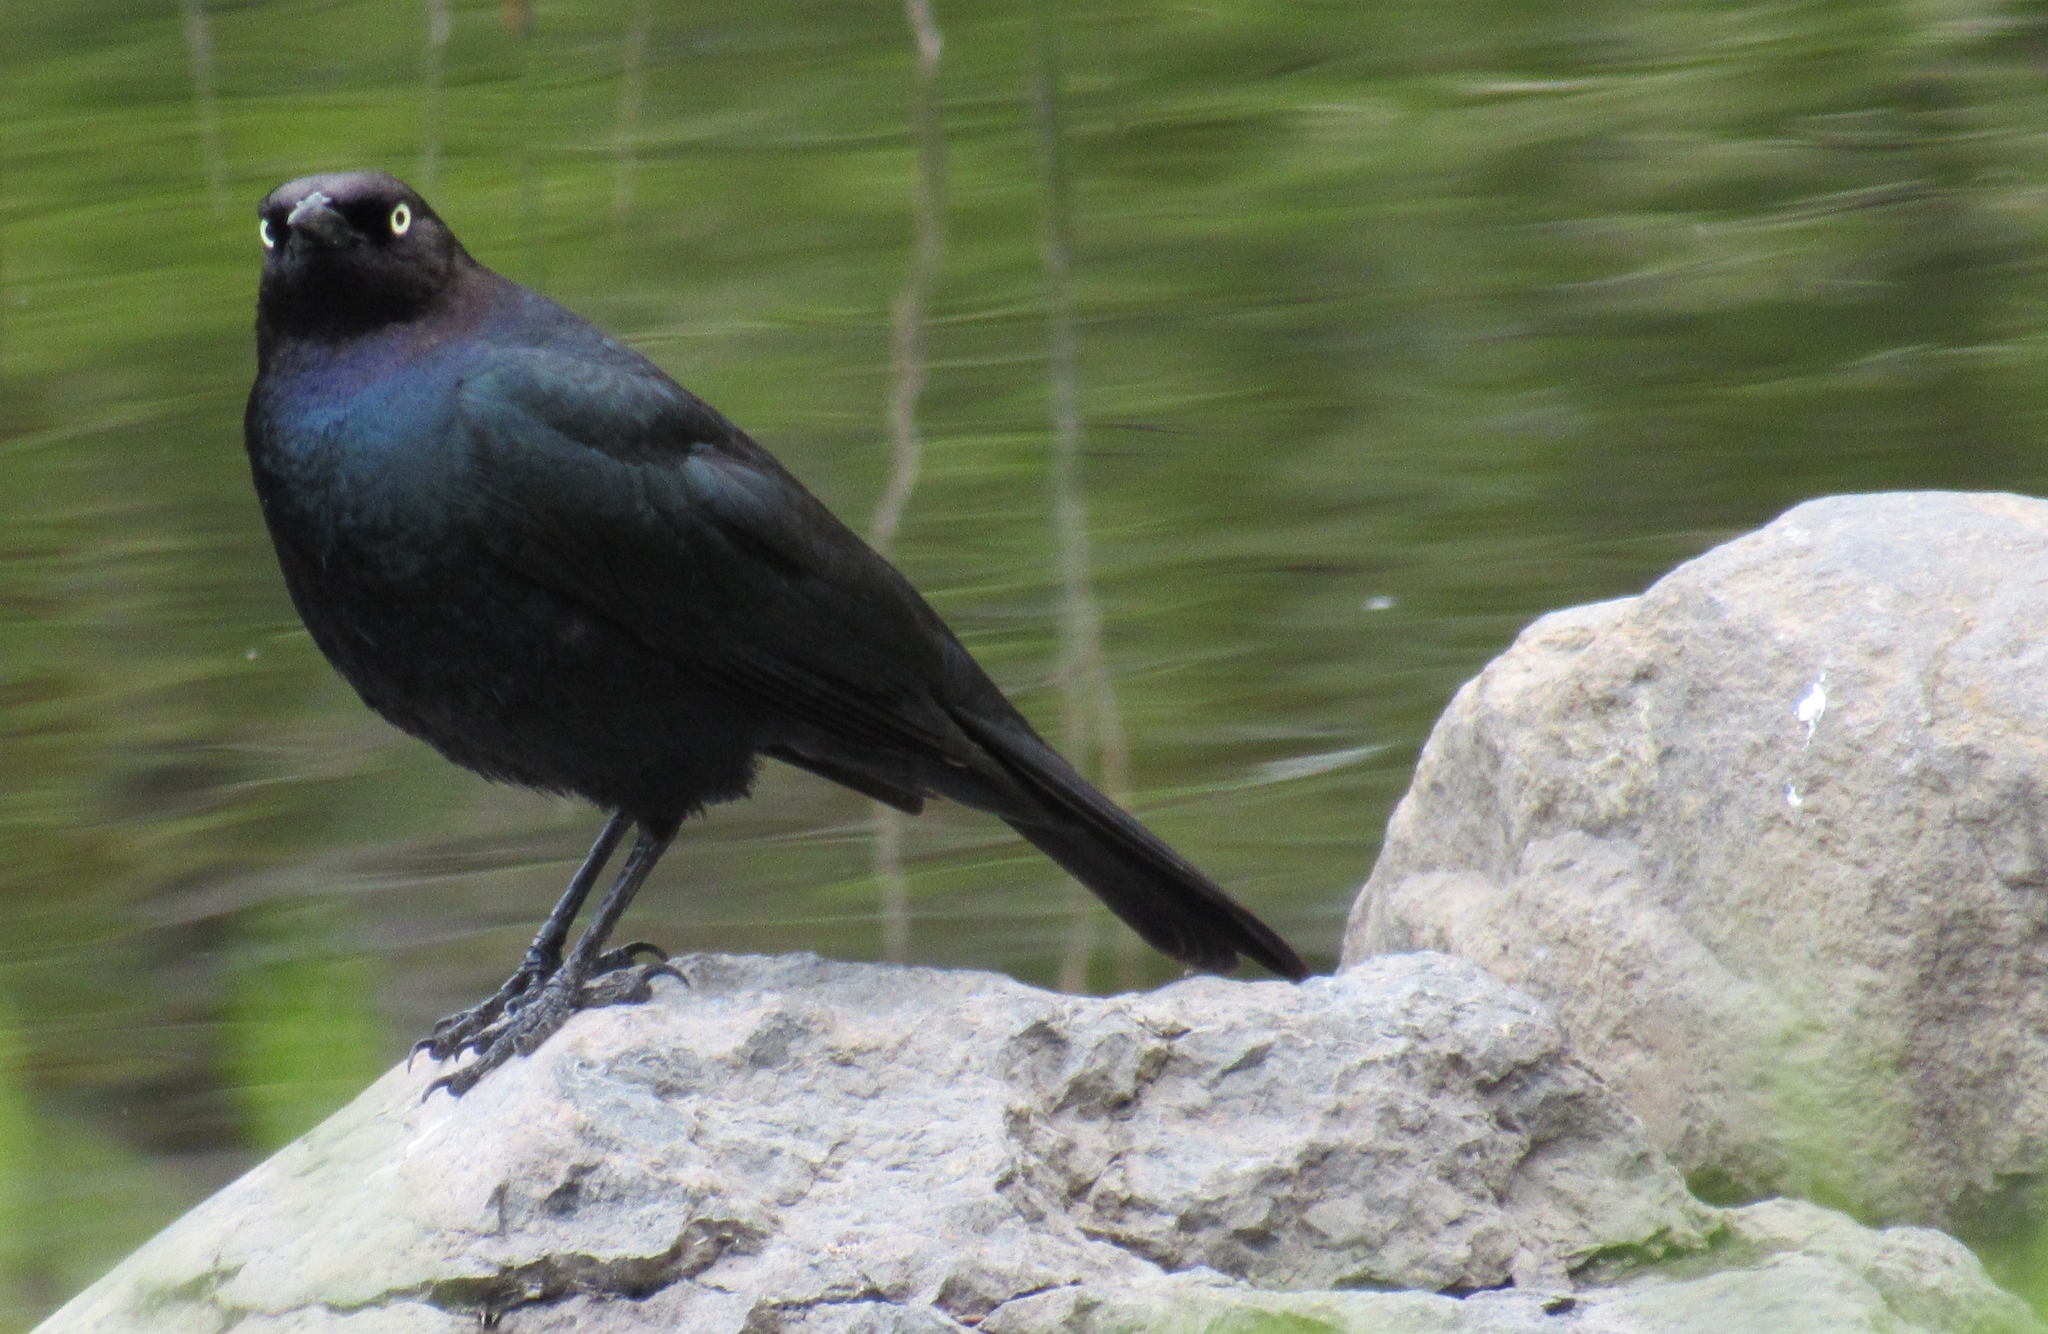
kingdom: Animalia
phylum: Chordata
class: Aves
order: Passeriformes
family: Icteridae
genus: Euphagus
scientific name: Euphagus cyanocephalus
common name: Brewer's blackbird
